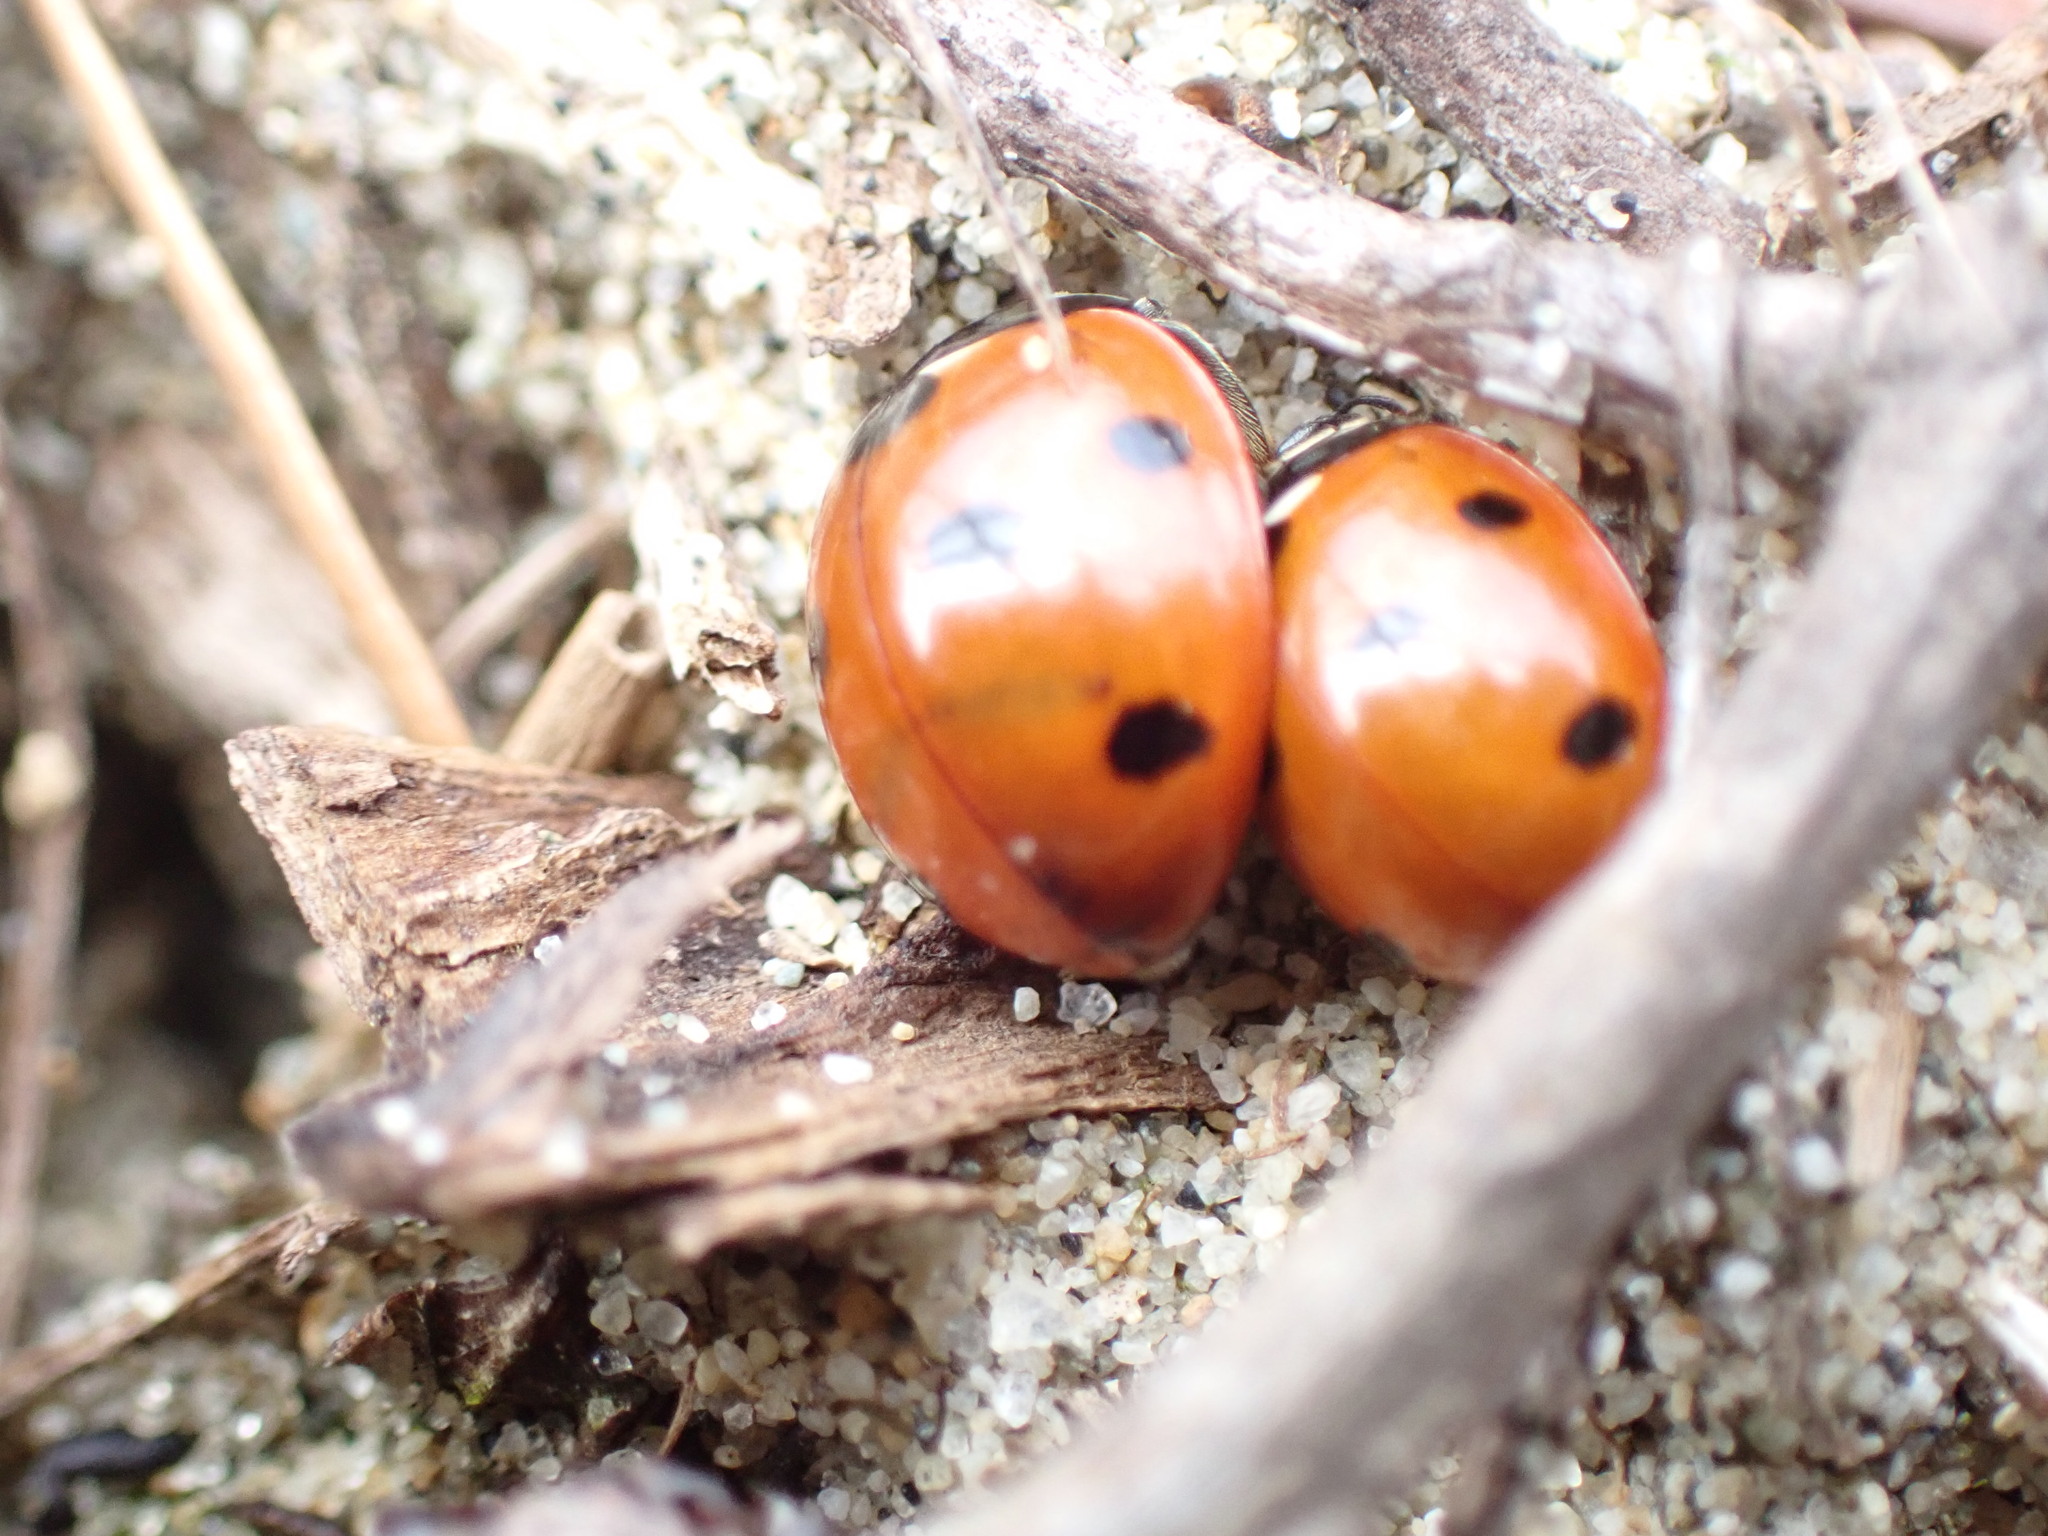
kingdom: Animalia
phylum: Arthropoda
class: Insecta
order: Coleoptera
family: Coccinellidae
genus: Coccinella
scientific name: Coccinella septempunctata
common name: Sevenspotted lady beetle
